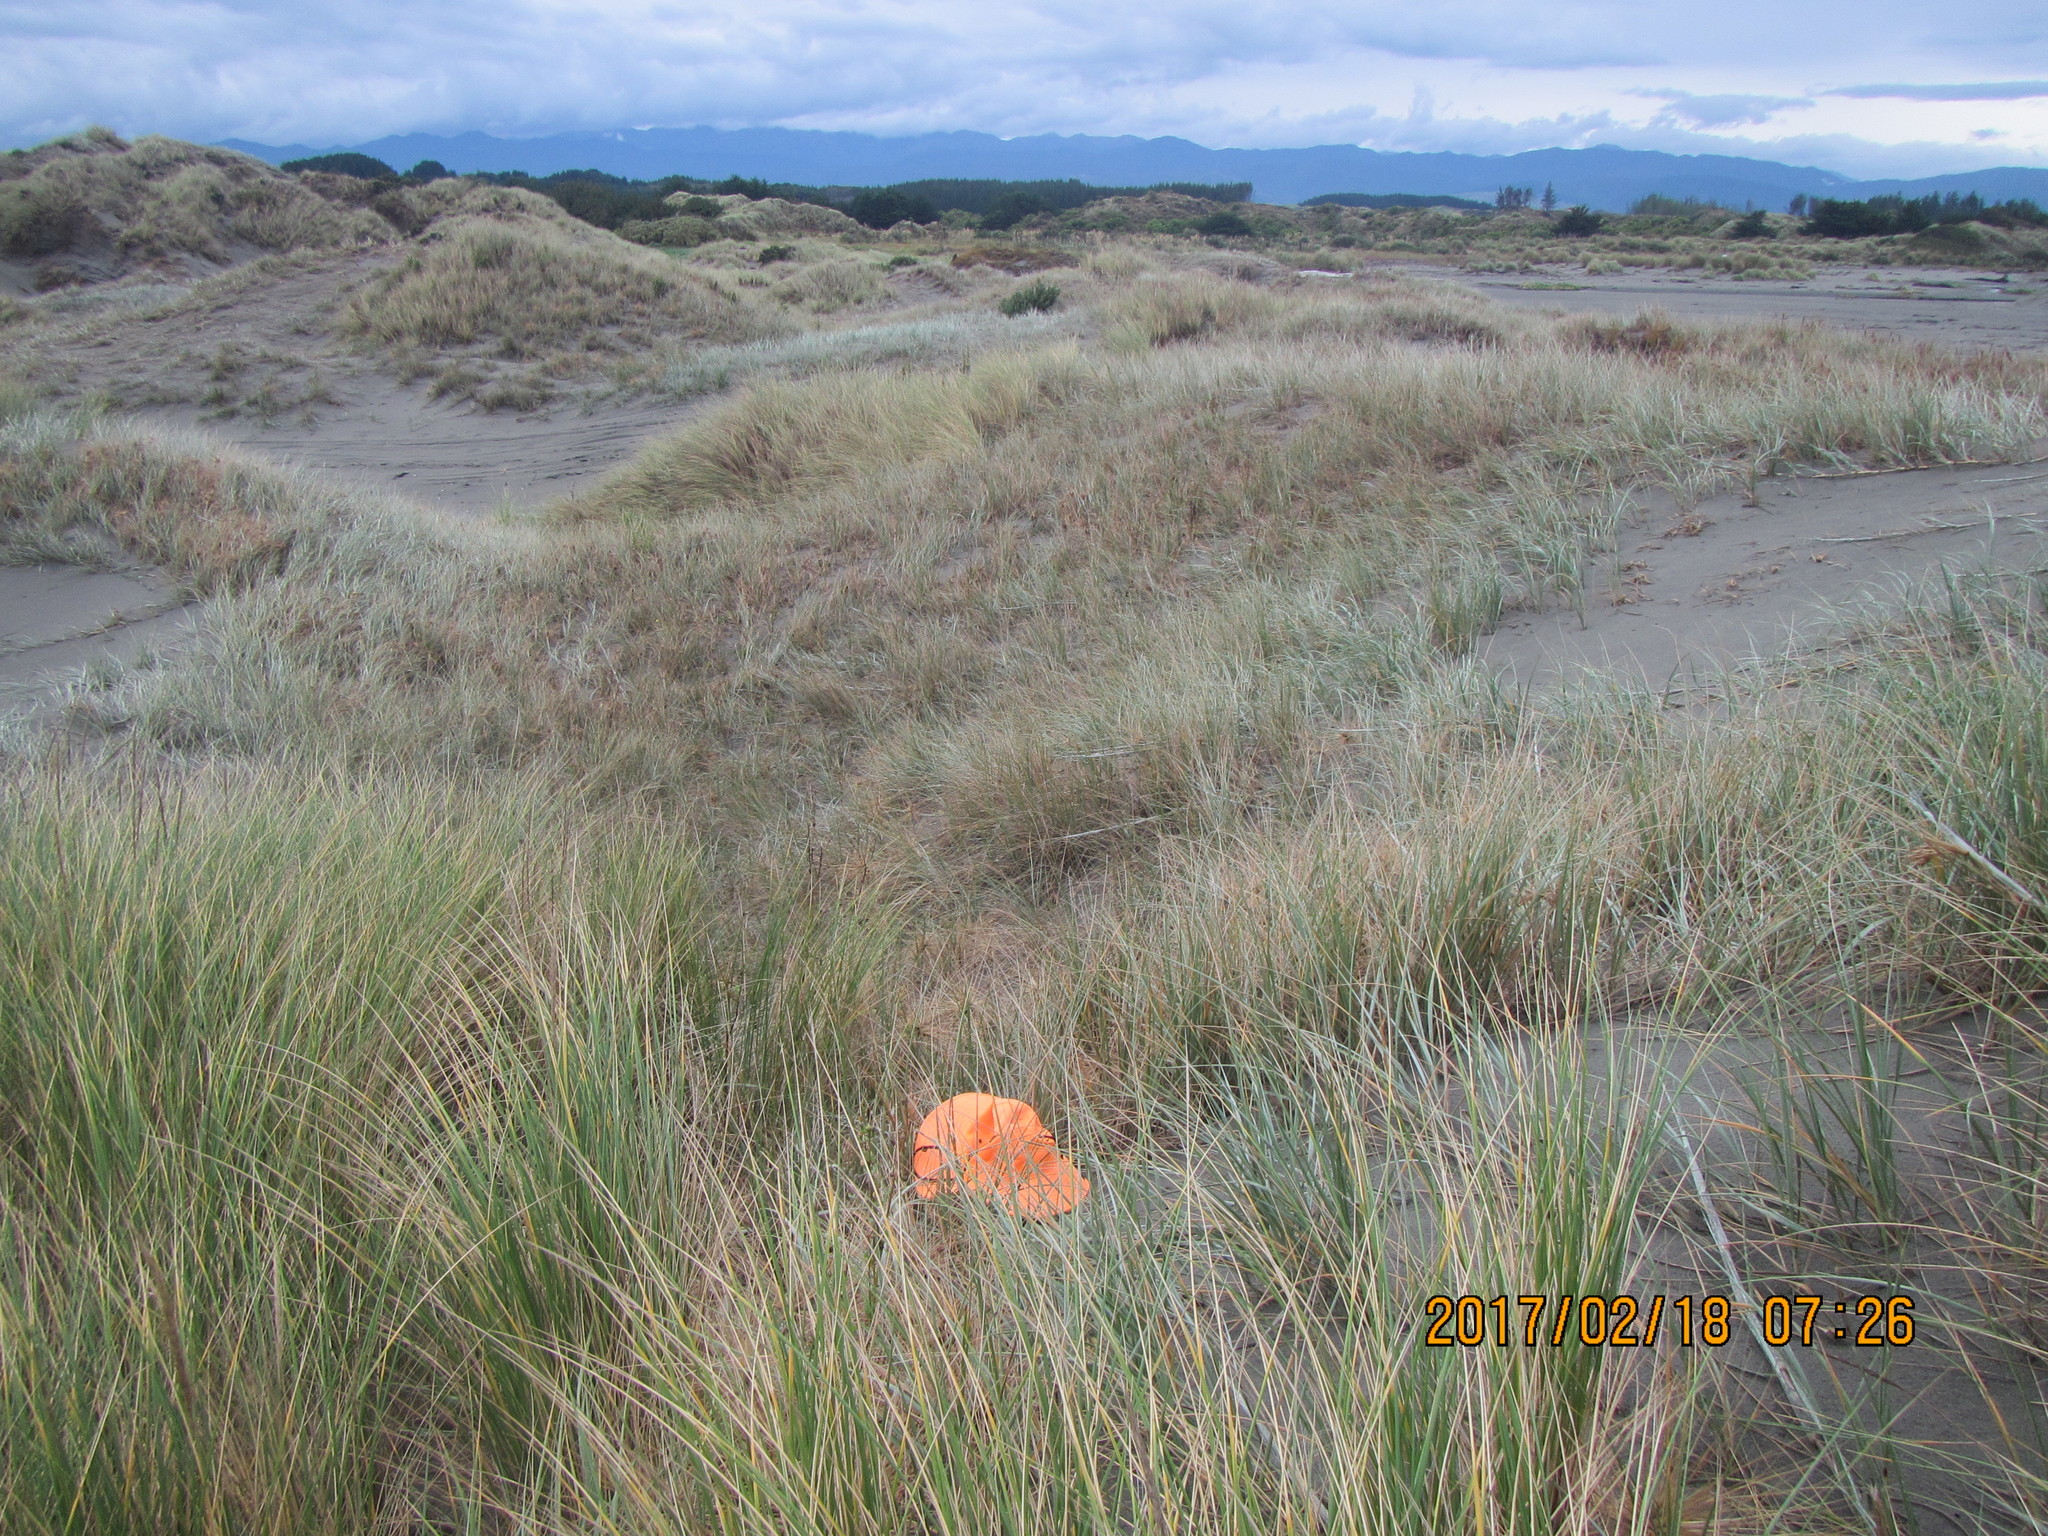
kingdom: Animalia
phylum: Arthropoda
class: Arachnida
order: Araneae
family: Theridiidae
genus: Latrodectus
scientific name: Latrodectus katipo
